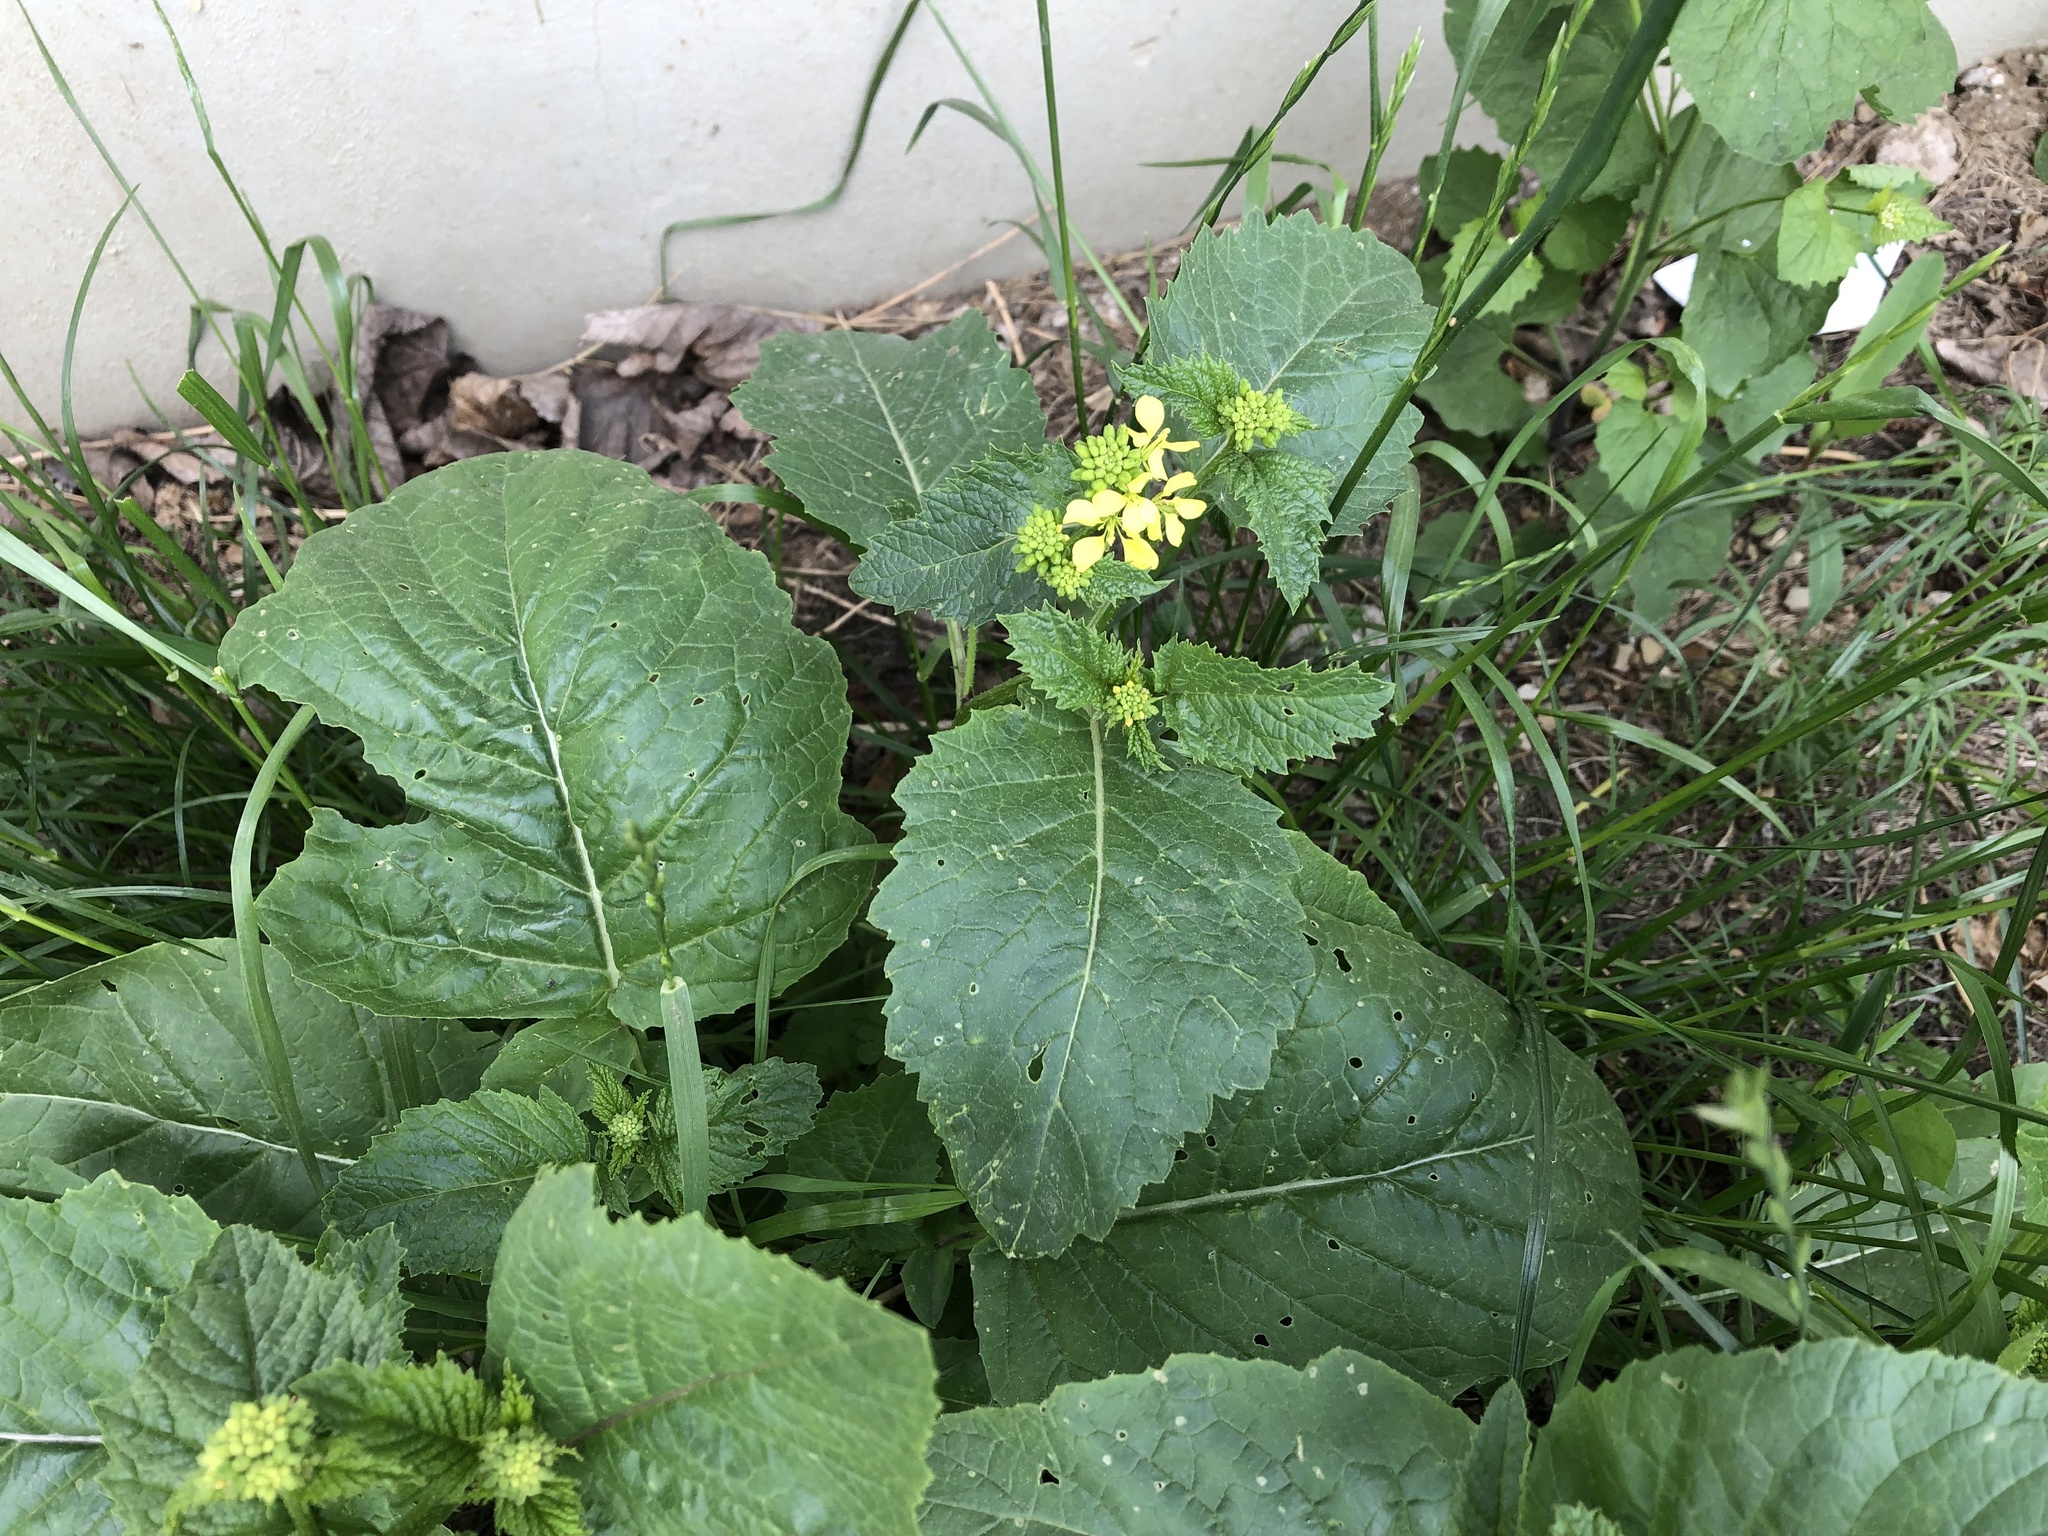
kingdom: Plantae
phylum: Tracheophyta
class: Magnoliopsida
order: Brassicales
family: Brassicaceae
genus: Sinapis
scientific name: Sinapis arvensis
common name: Charlock
